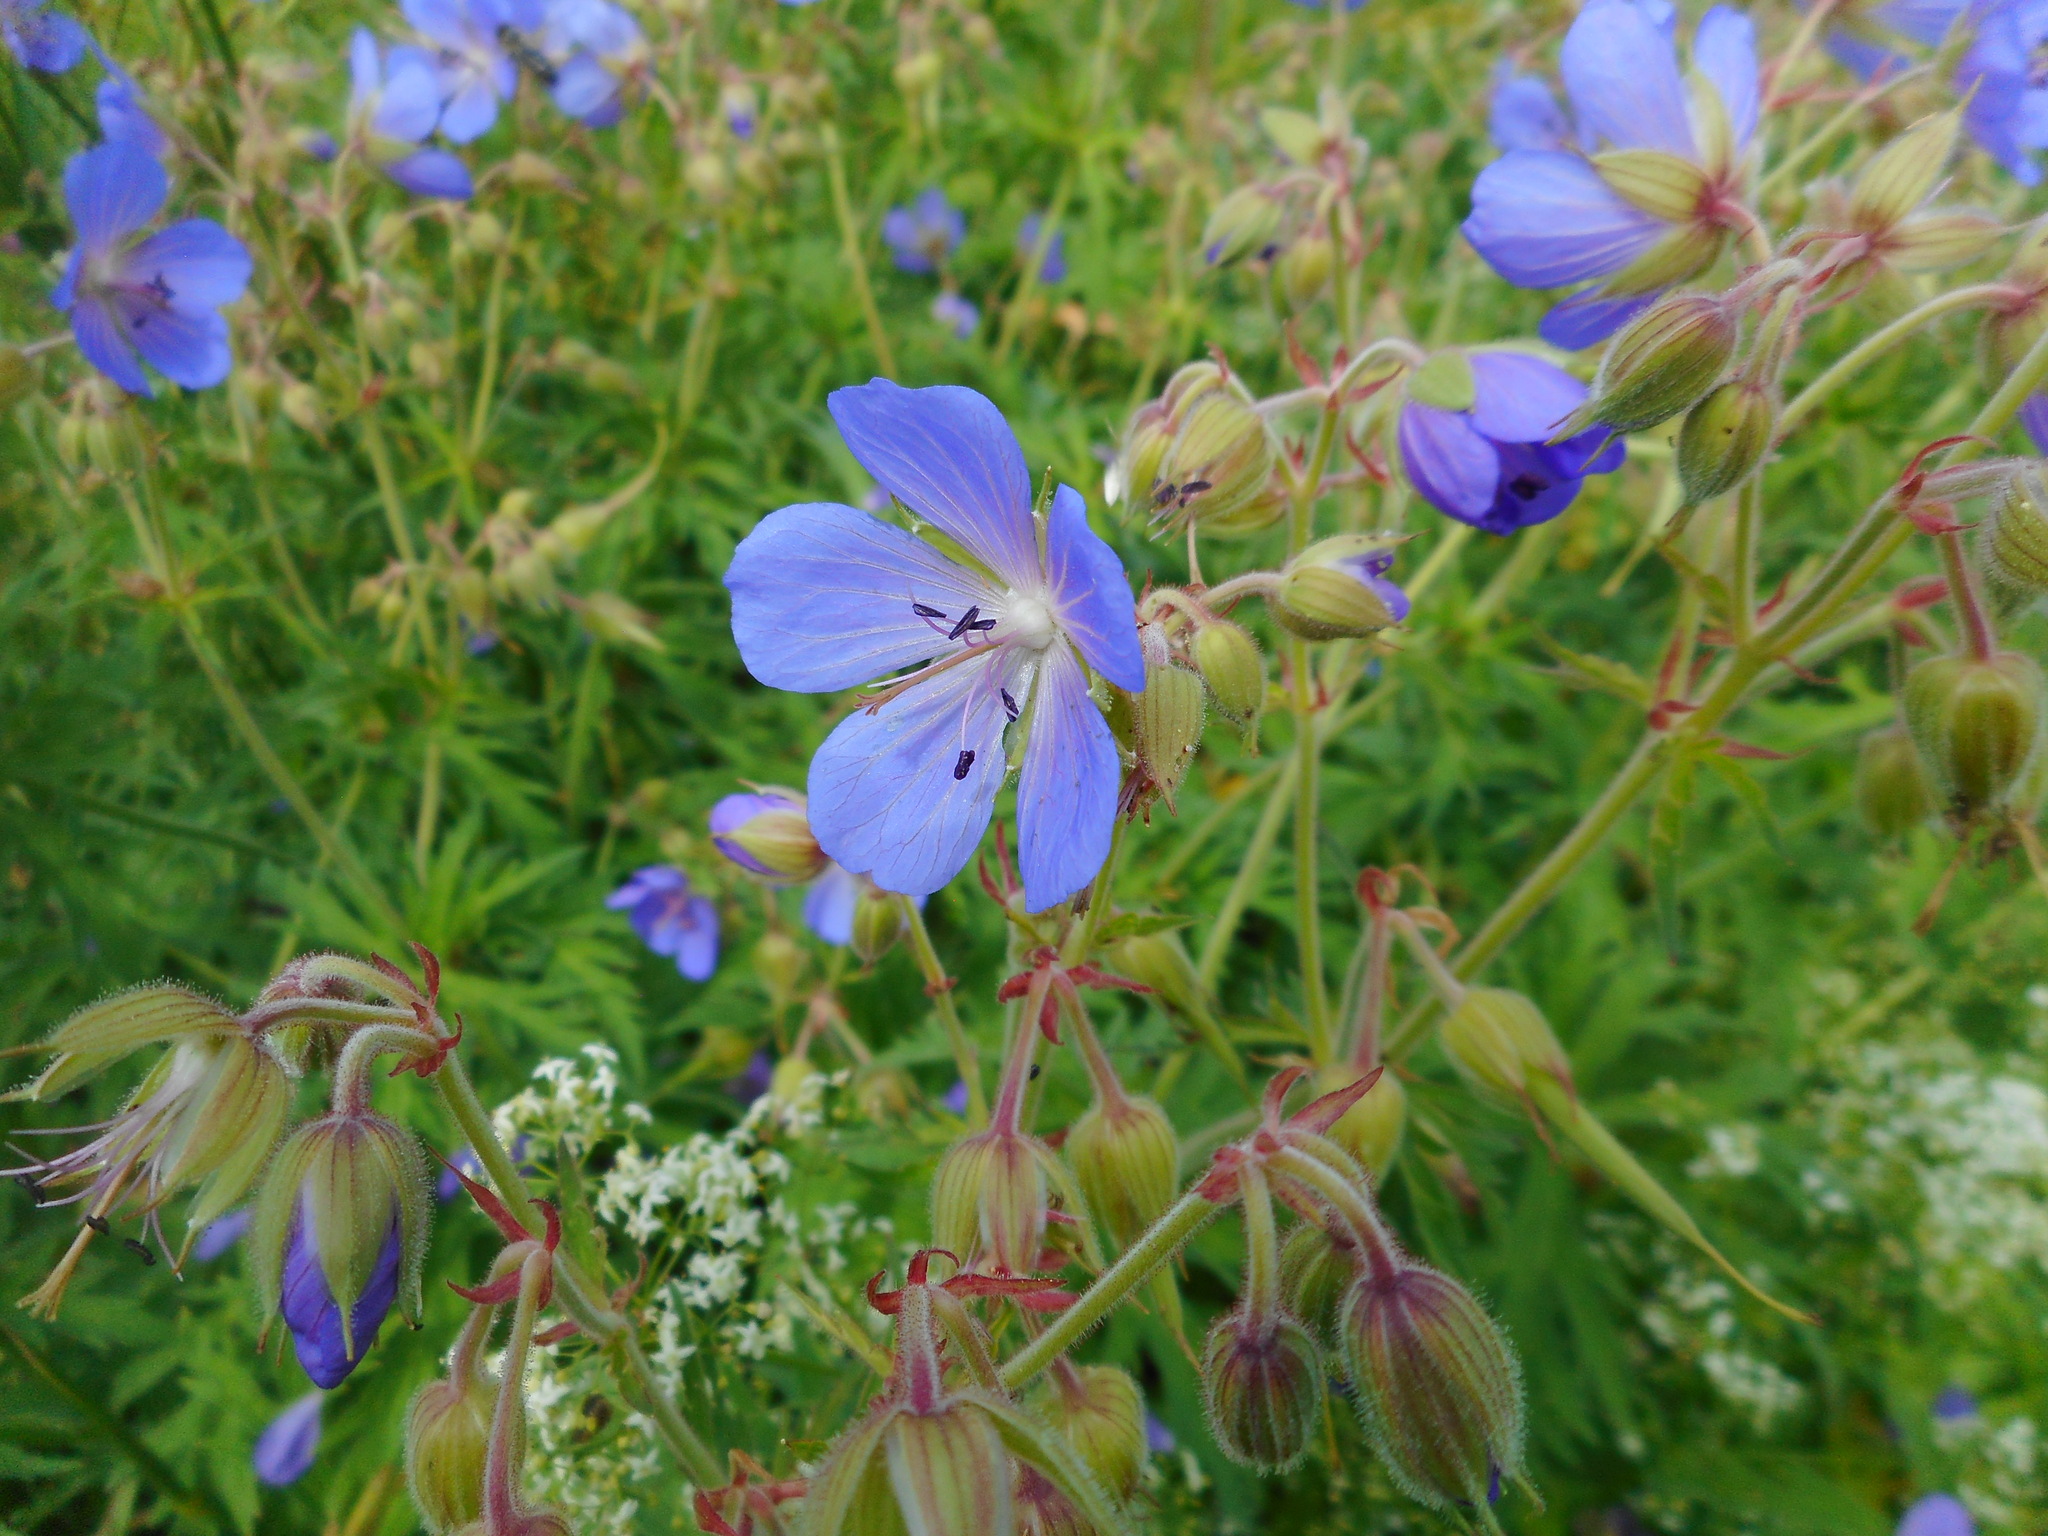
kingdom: Plantae
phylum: Tracheophyta
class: Magnoliopsida
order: Geraniales
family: Geraniaceae
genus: Geranium
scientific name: Geranium pratense
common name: Meadow crane's-bill
